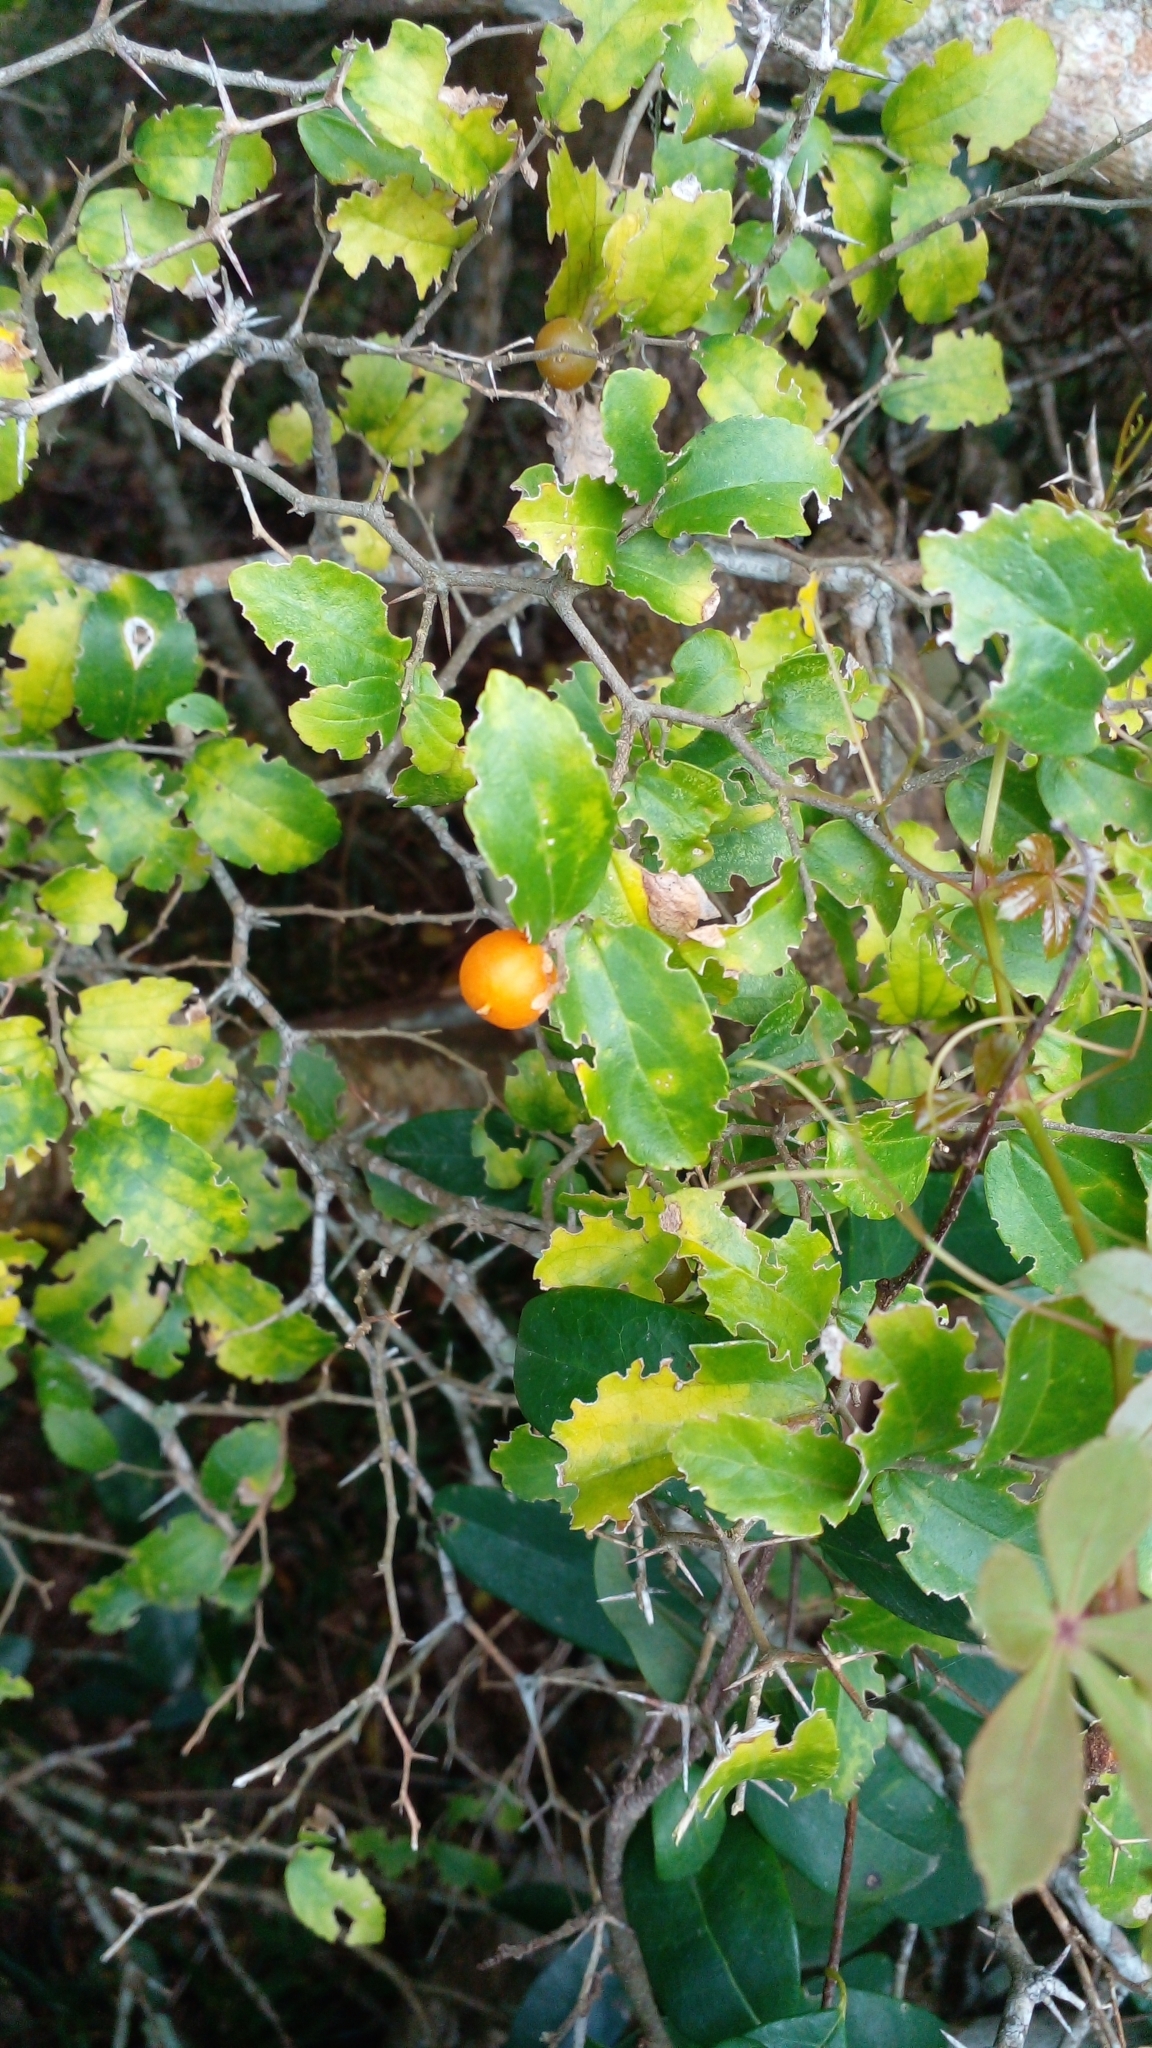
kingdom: Plantae
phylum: Tracheophyta
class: Magnoliopsida
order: Rosales
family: Cannabaceae
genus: Celtis
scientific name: Celtis spinosa
